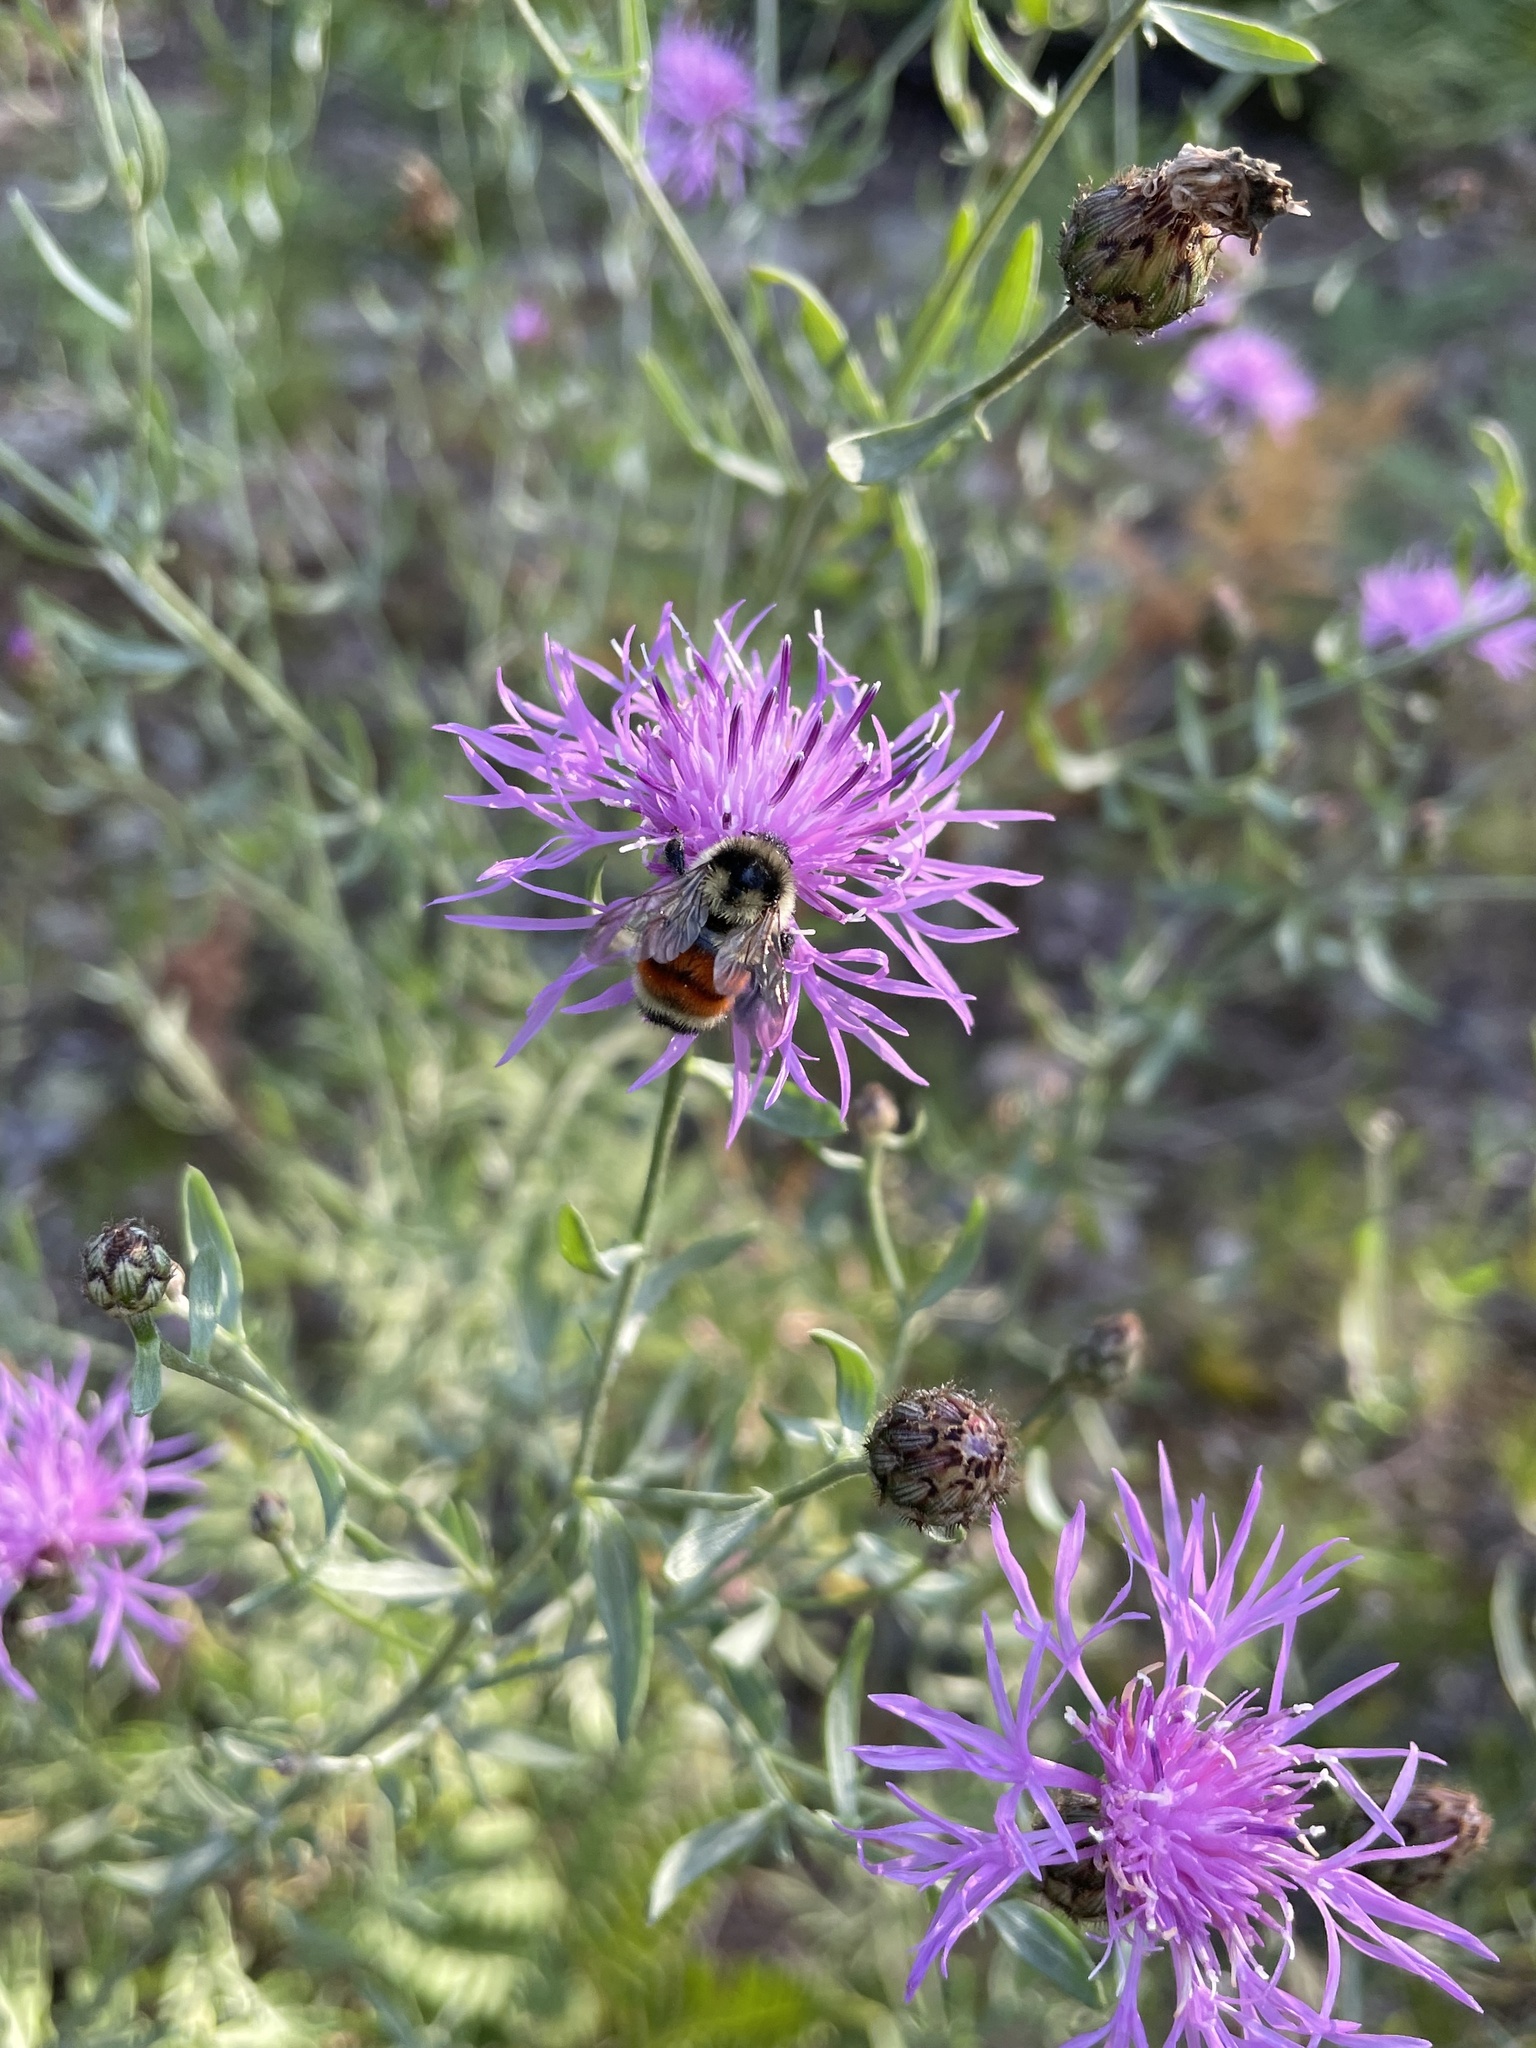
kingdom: Animalia
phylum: Arthropoda
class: Insecta
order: Hymenoptera
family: Apidae
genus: Bombus
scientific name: Bombus ternarius
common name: Tri-colored bumble bee
